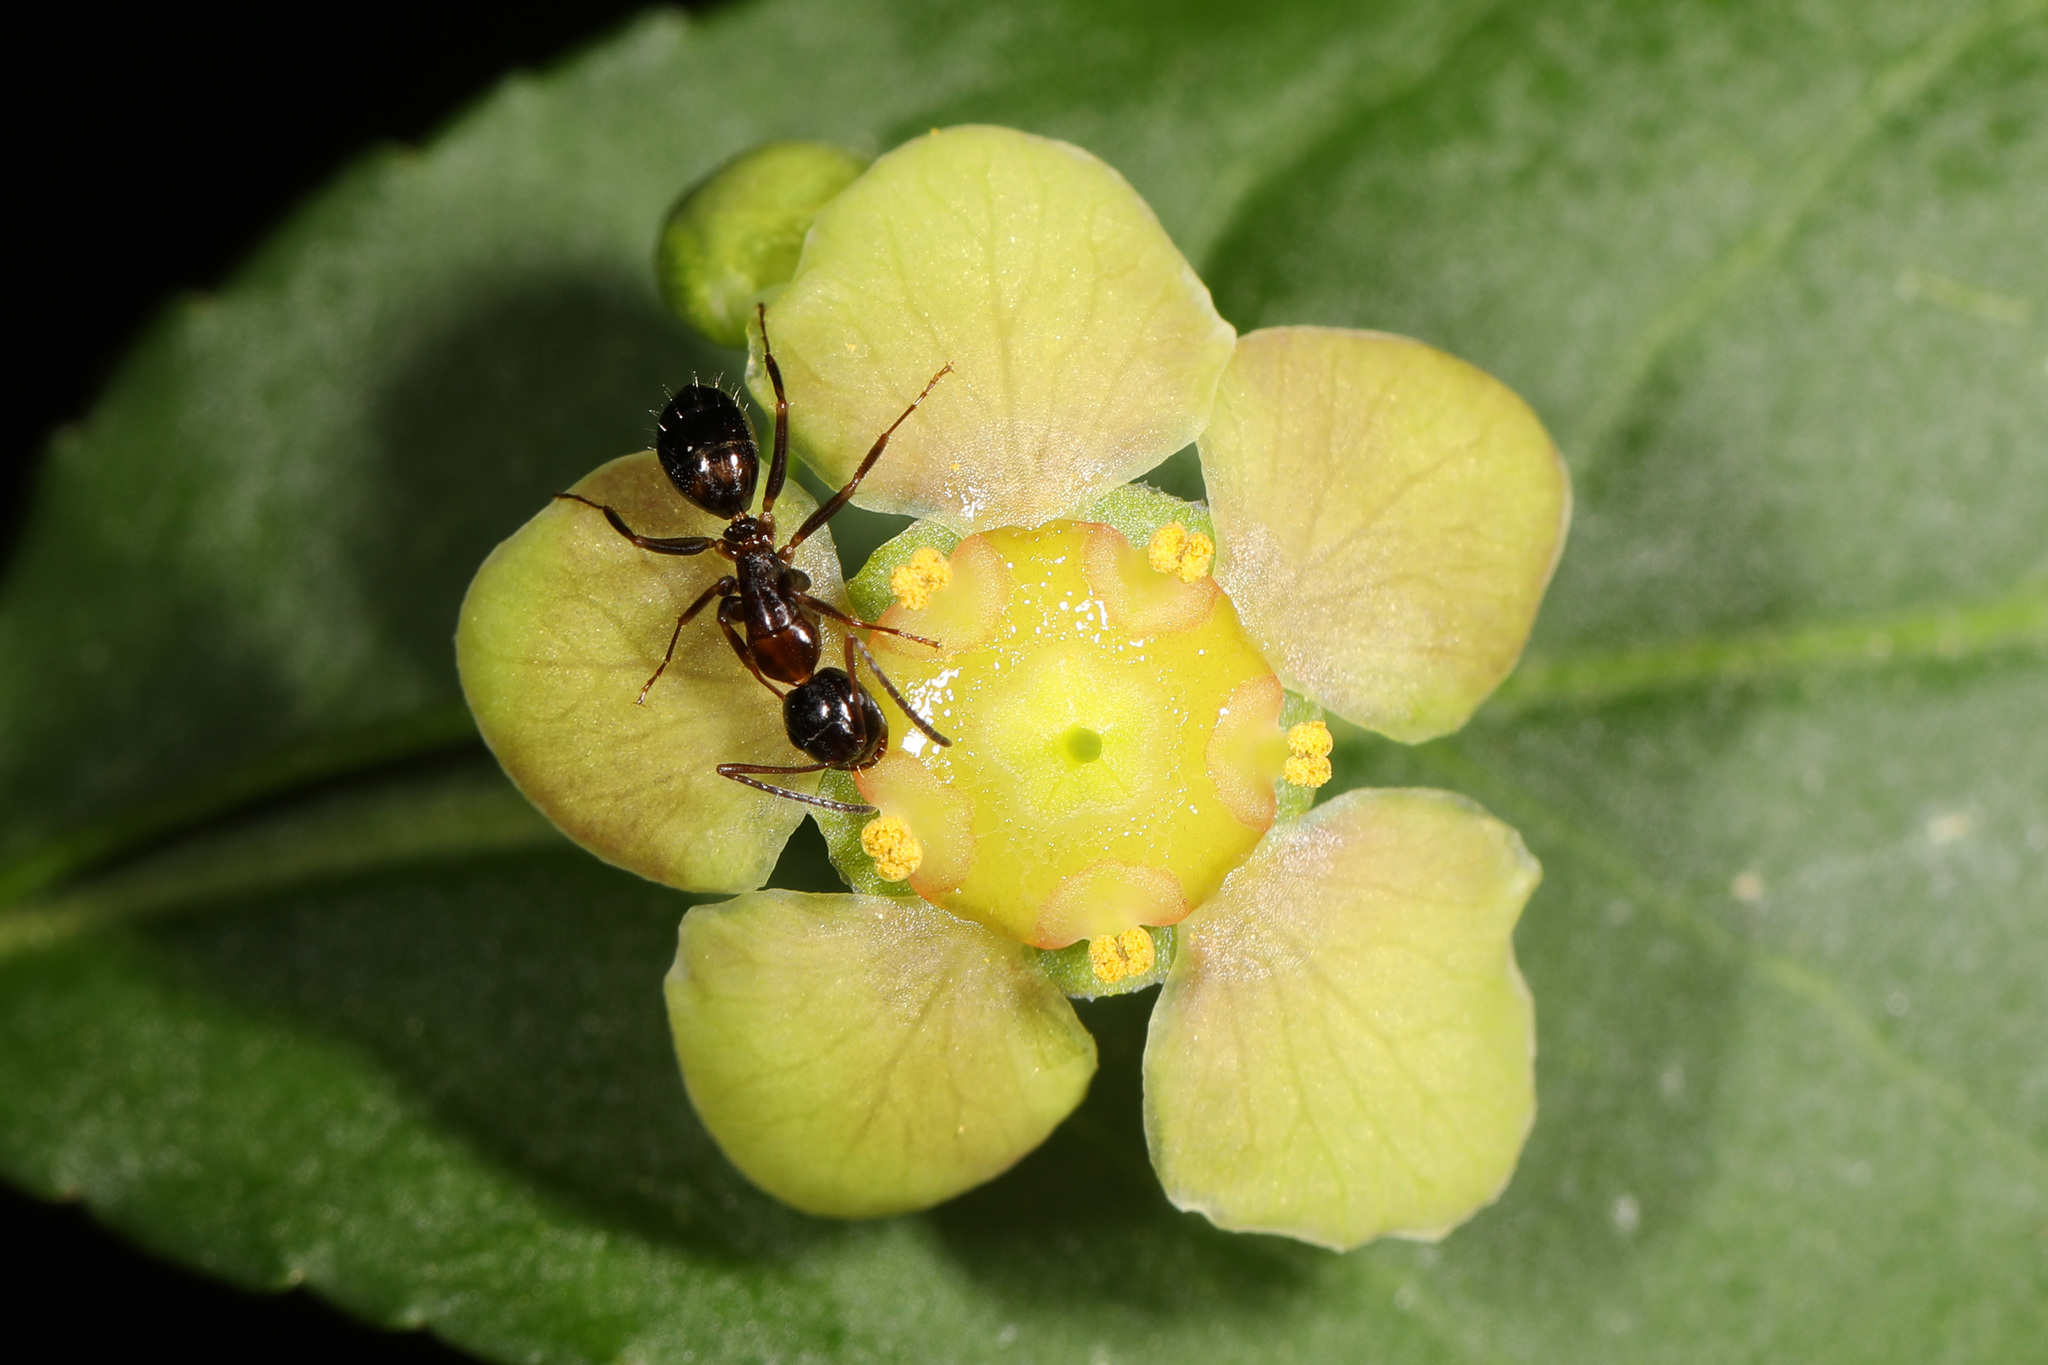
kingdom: Plantae
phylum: Tracheophyta
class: Magnoliopsida
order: Celastrales
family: Celastraceae
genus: Euonymus
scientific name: Euonymus americanus
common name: Bursting-heart
